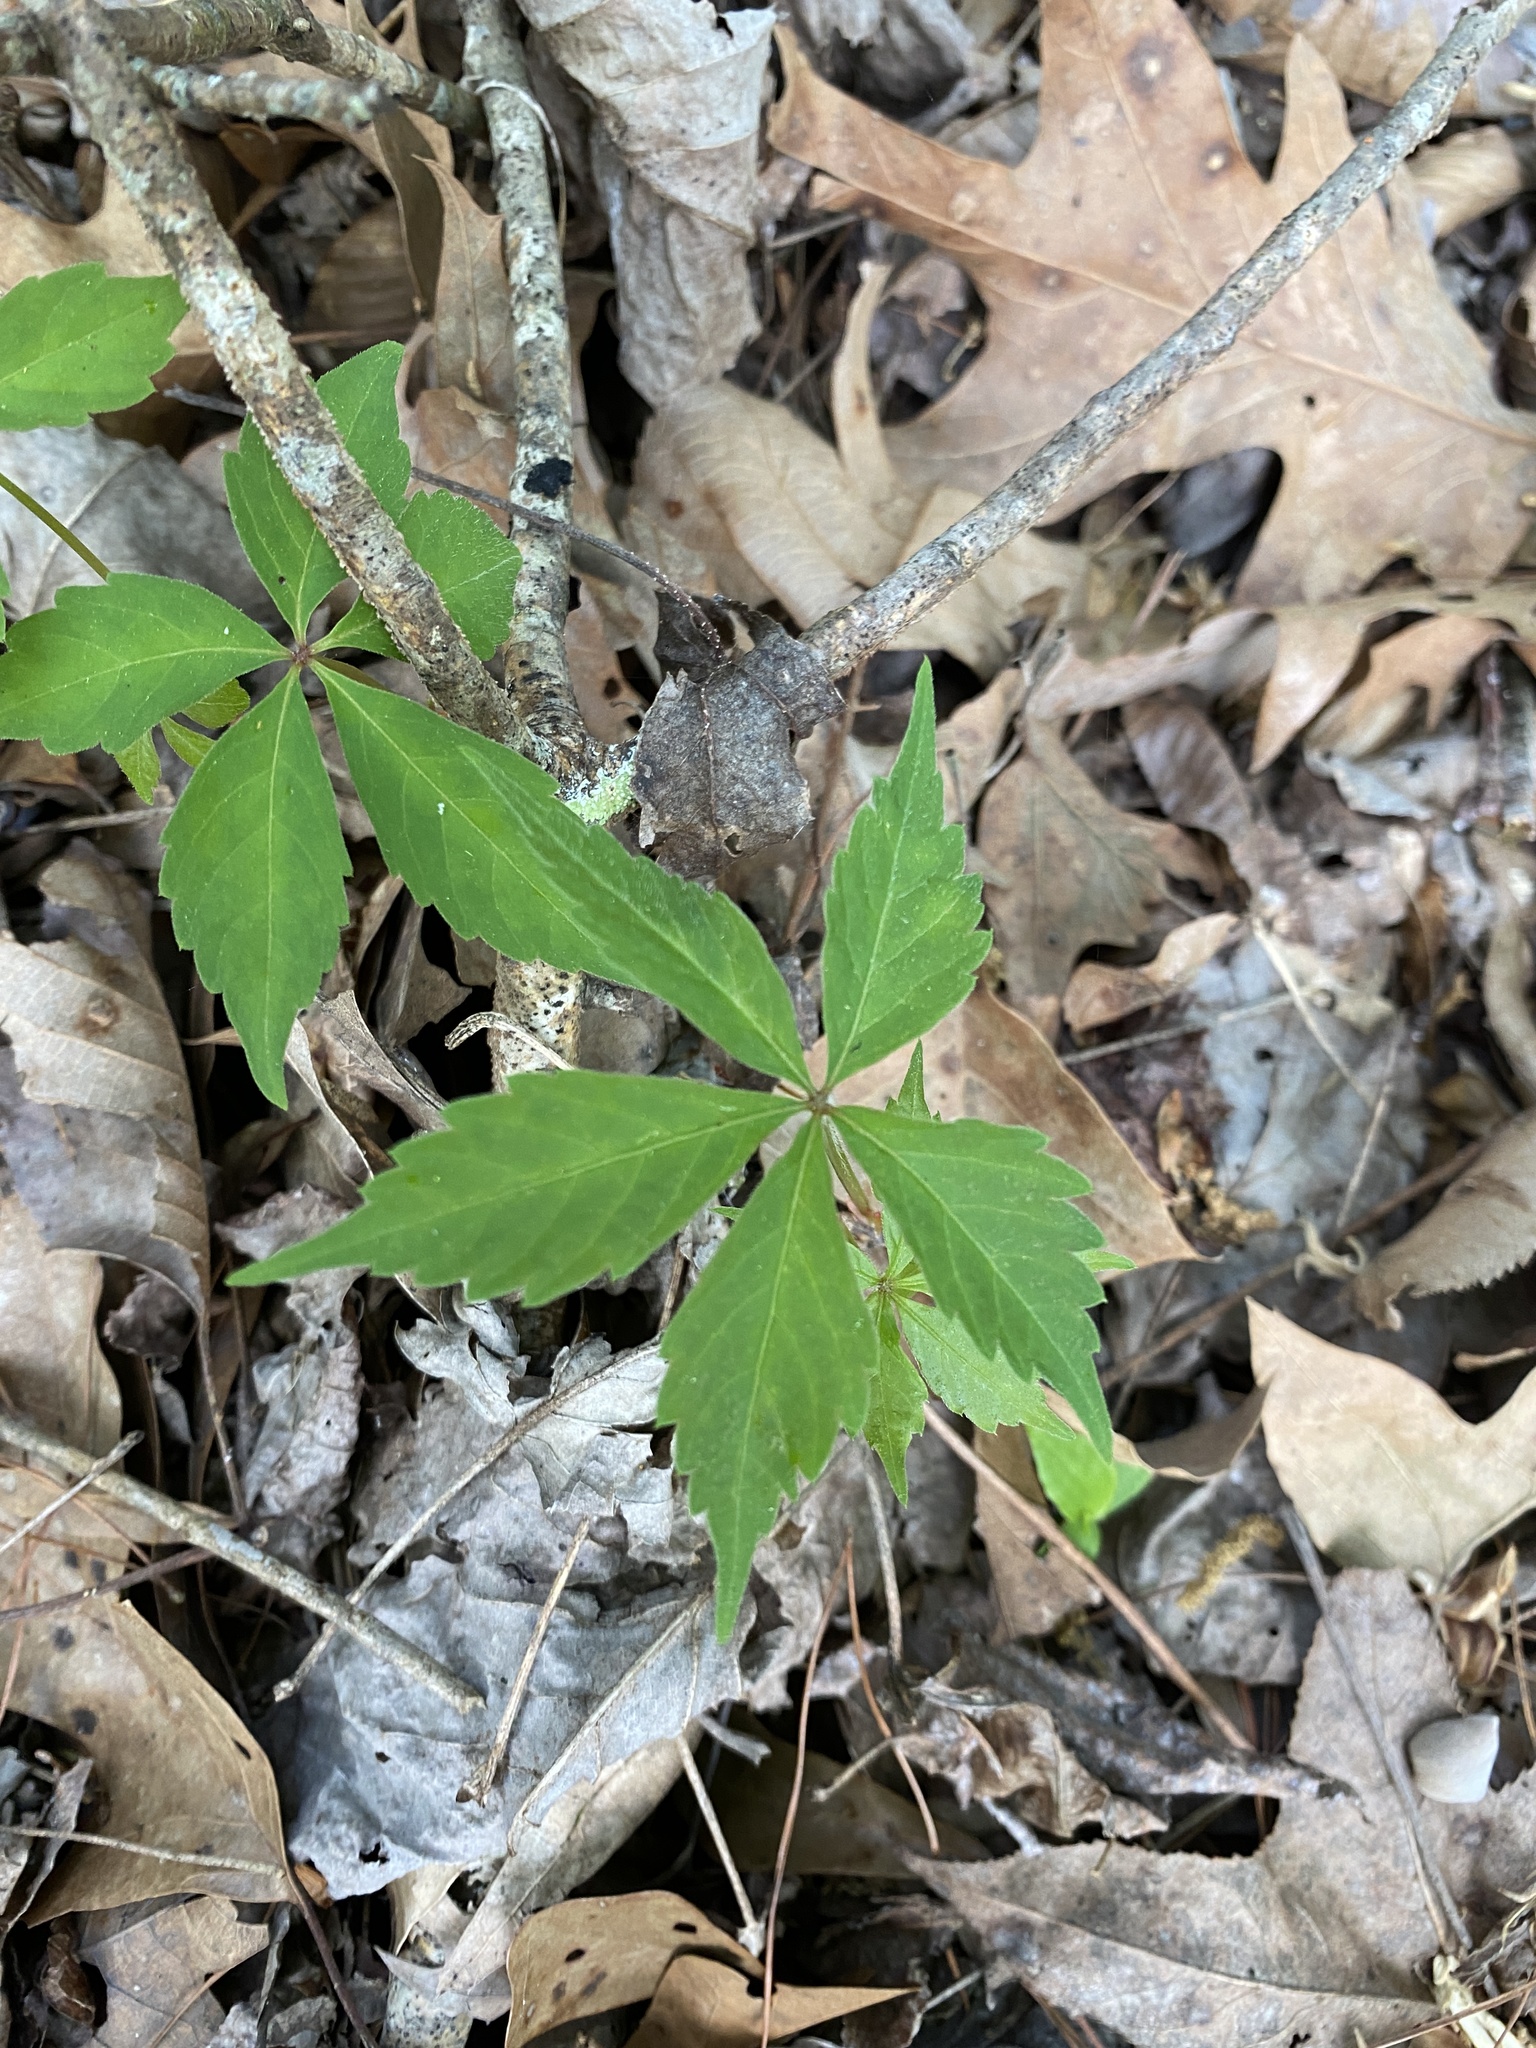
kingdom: Plantae
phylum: Tracheophyta
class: Magnoliopsida
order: Vitales
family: Vitaceae
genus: Parthenocissus
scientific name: Parthenocissus quinquefolia
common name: Virginia-creeper
